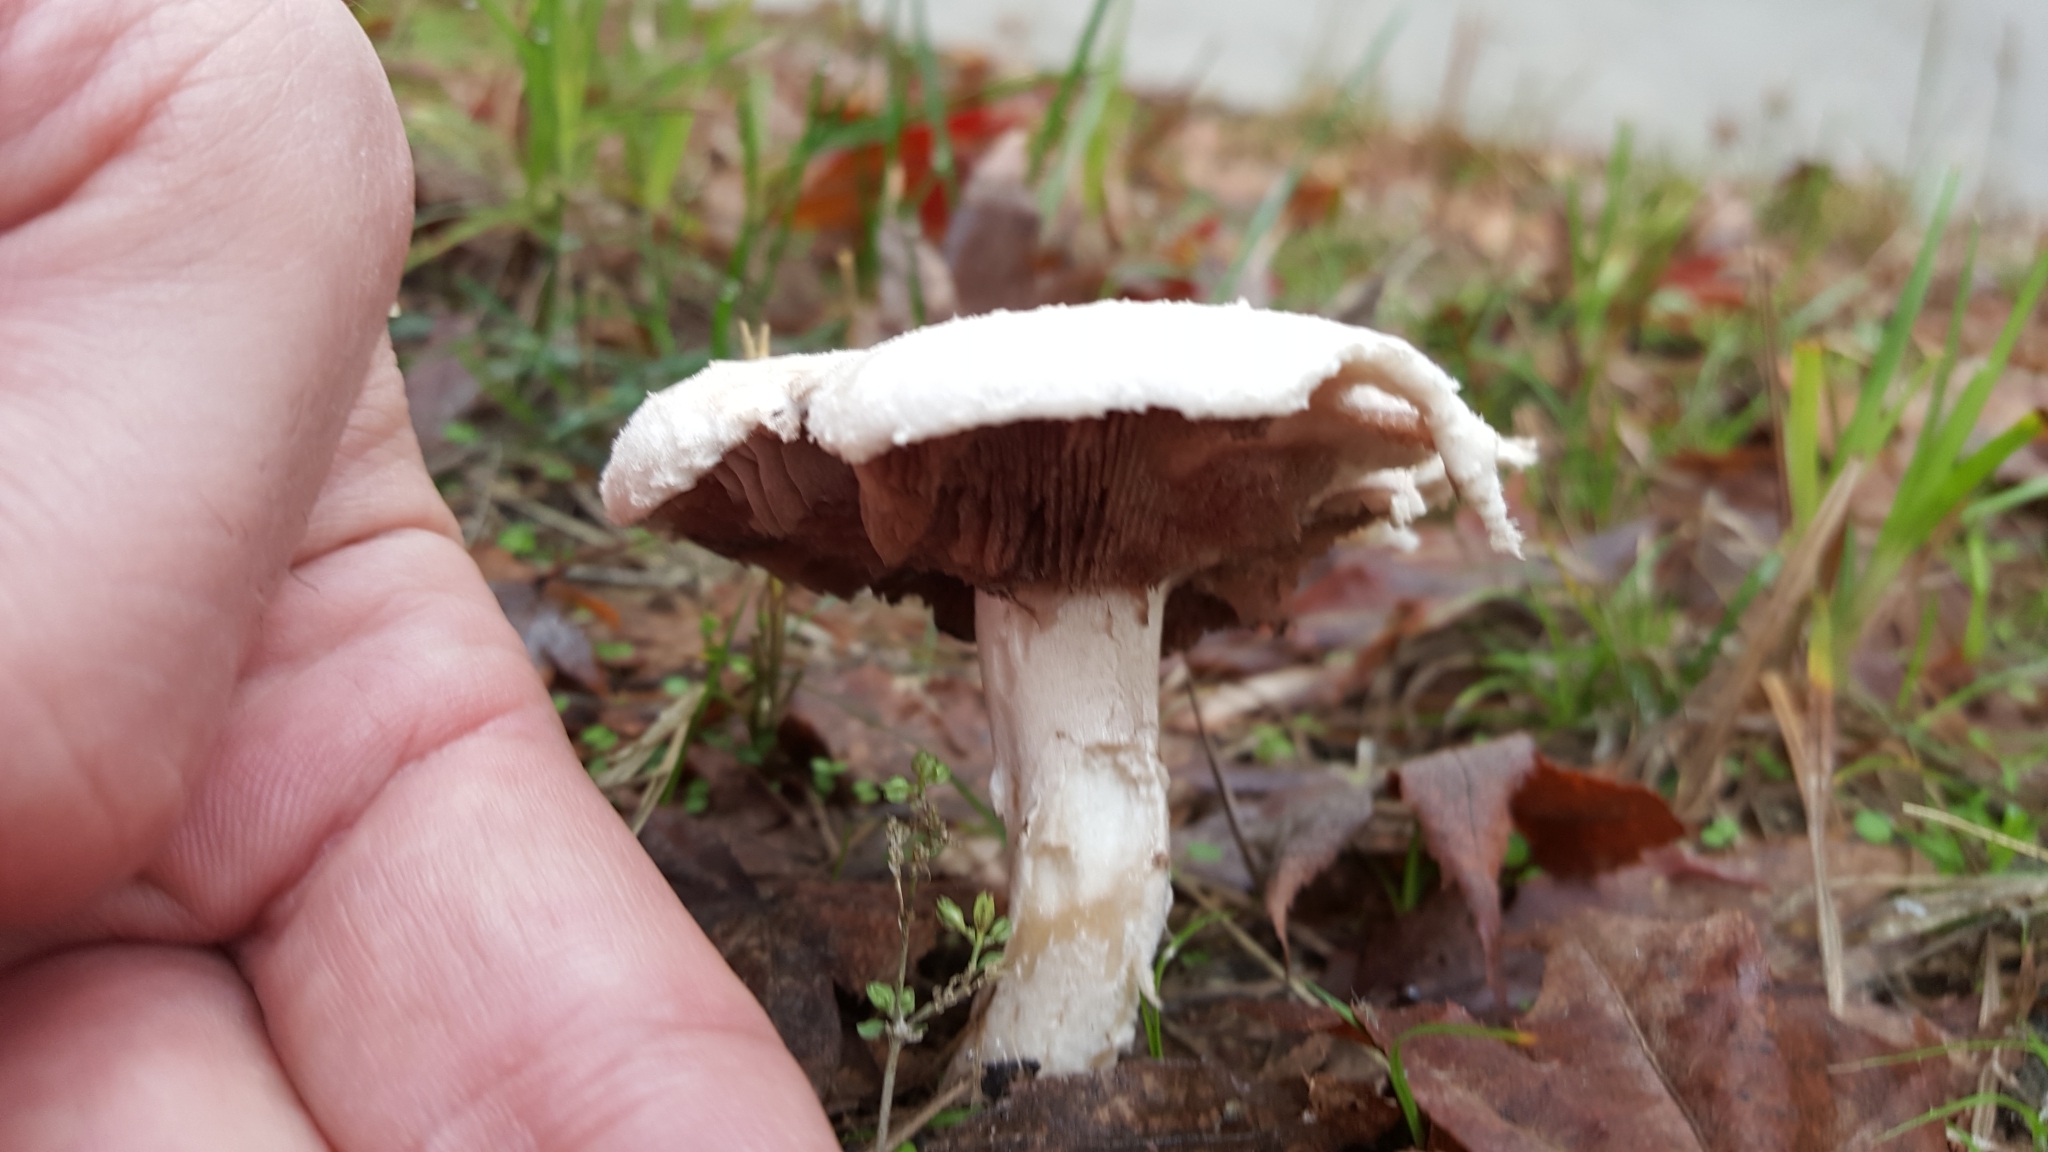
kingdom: Fungi
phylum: Basidiomycota
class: Agaricomycetes
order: Agaricales
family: Agaricaceae
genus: Agaricus
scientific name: Agaricus campestris
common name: Field mushroom
